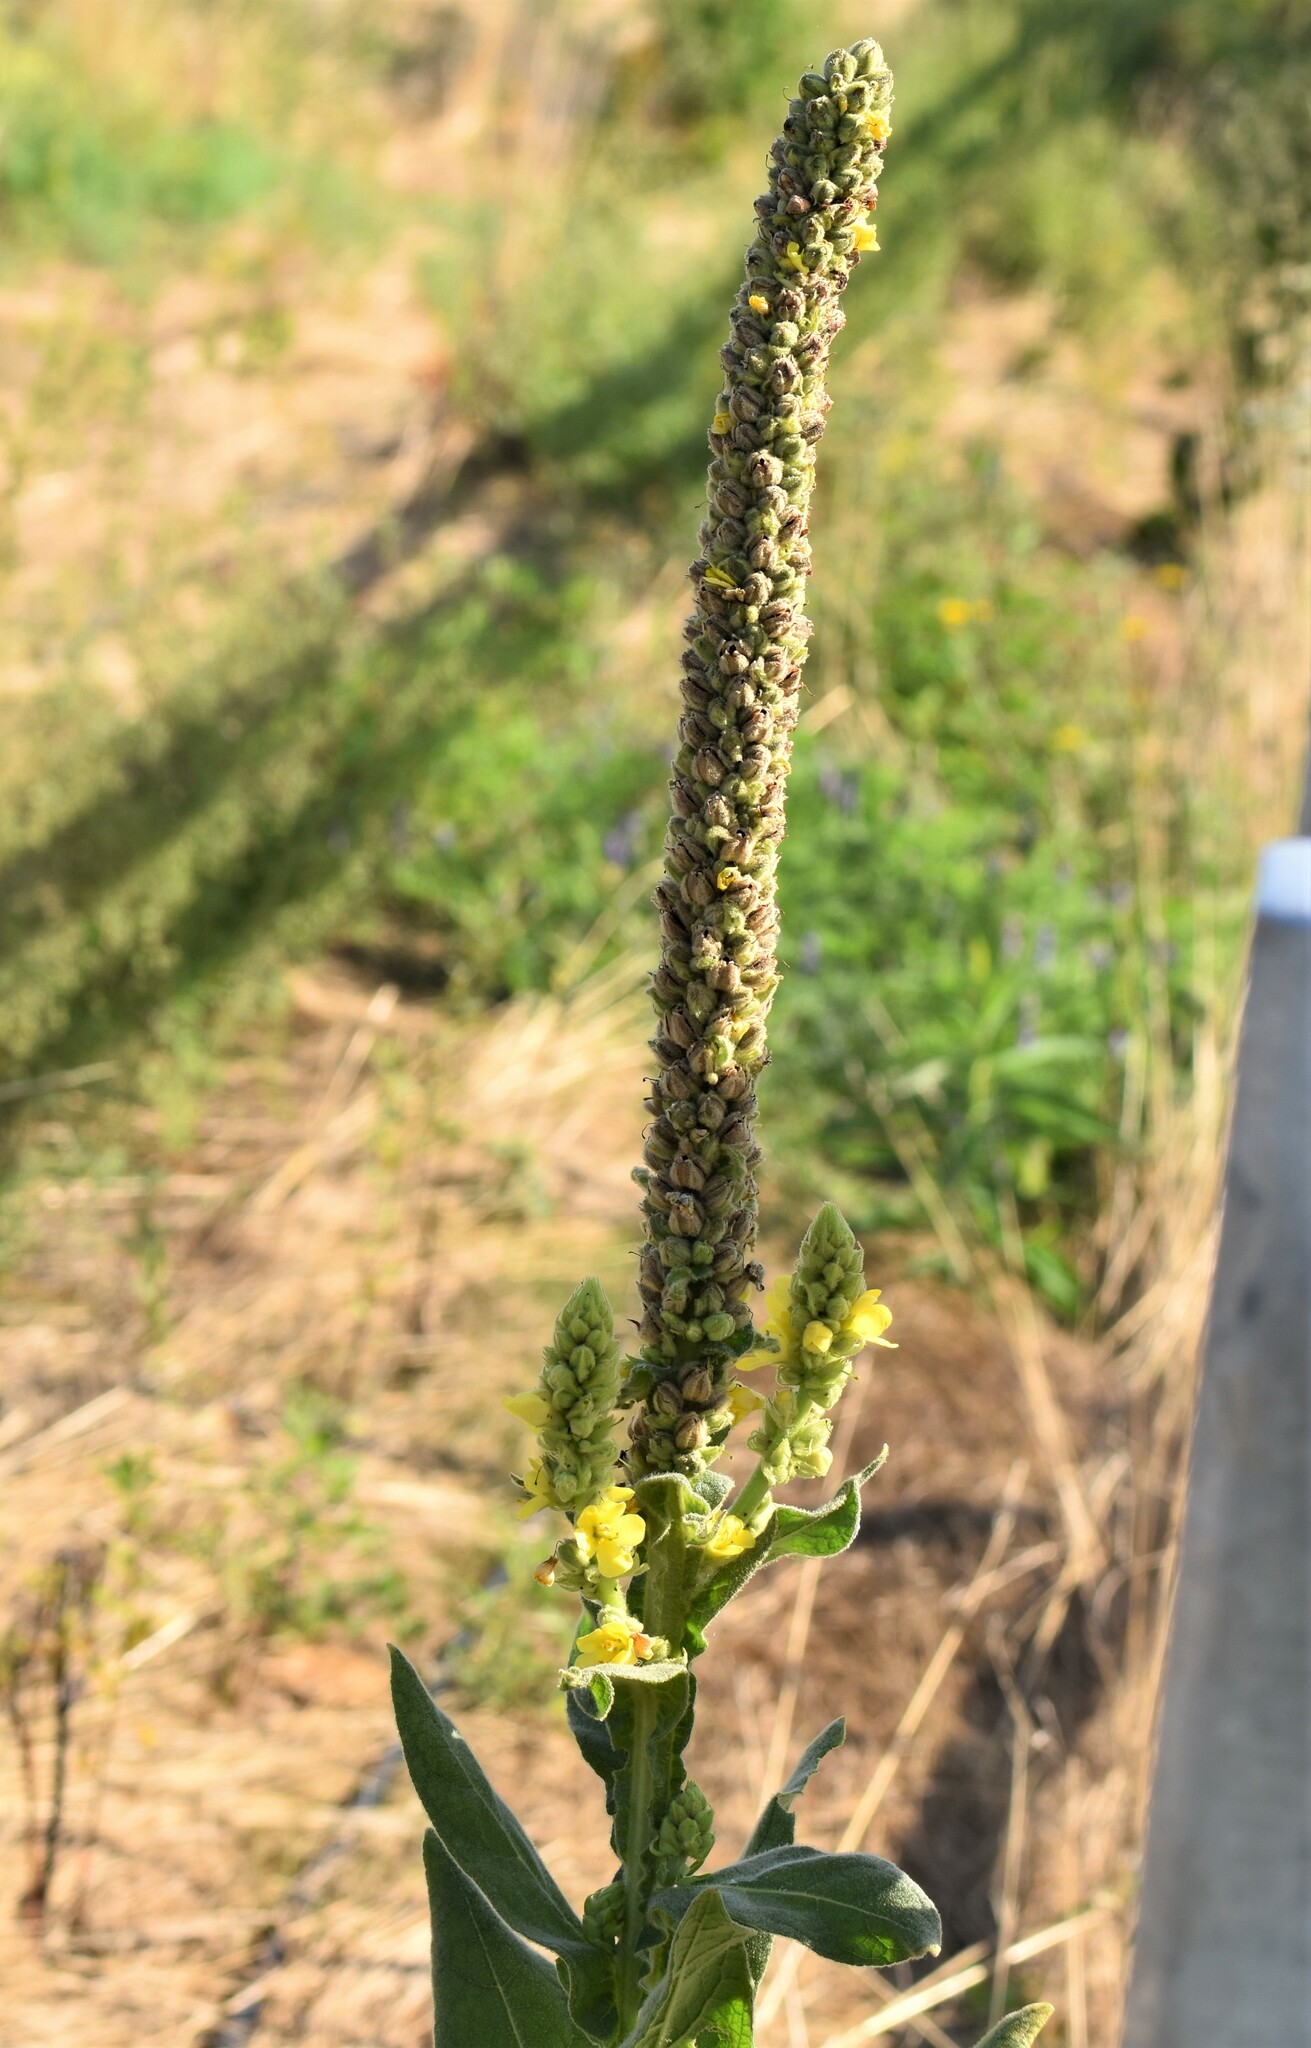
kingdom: Plantae
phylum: Tracheophyta
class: Magnoliopsida
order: Lamiales
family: Scrophulariaceae
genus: Verbascum
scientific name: Verbascum thapsus
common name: Common mullein
